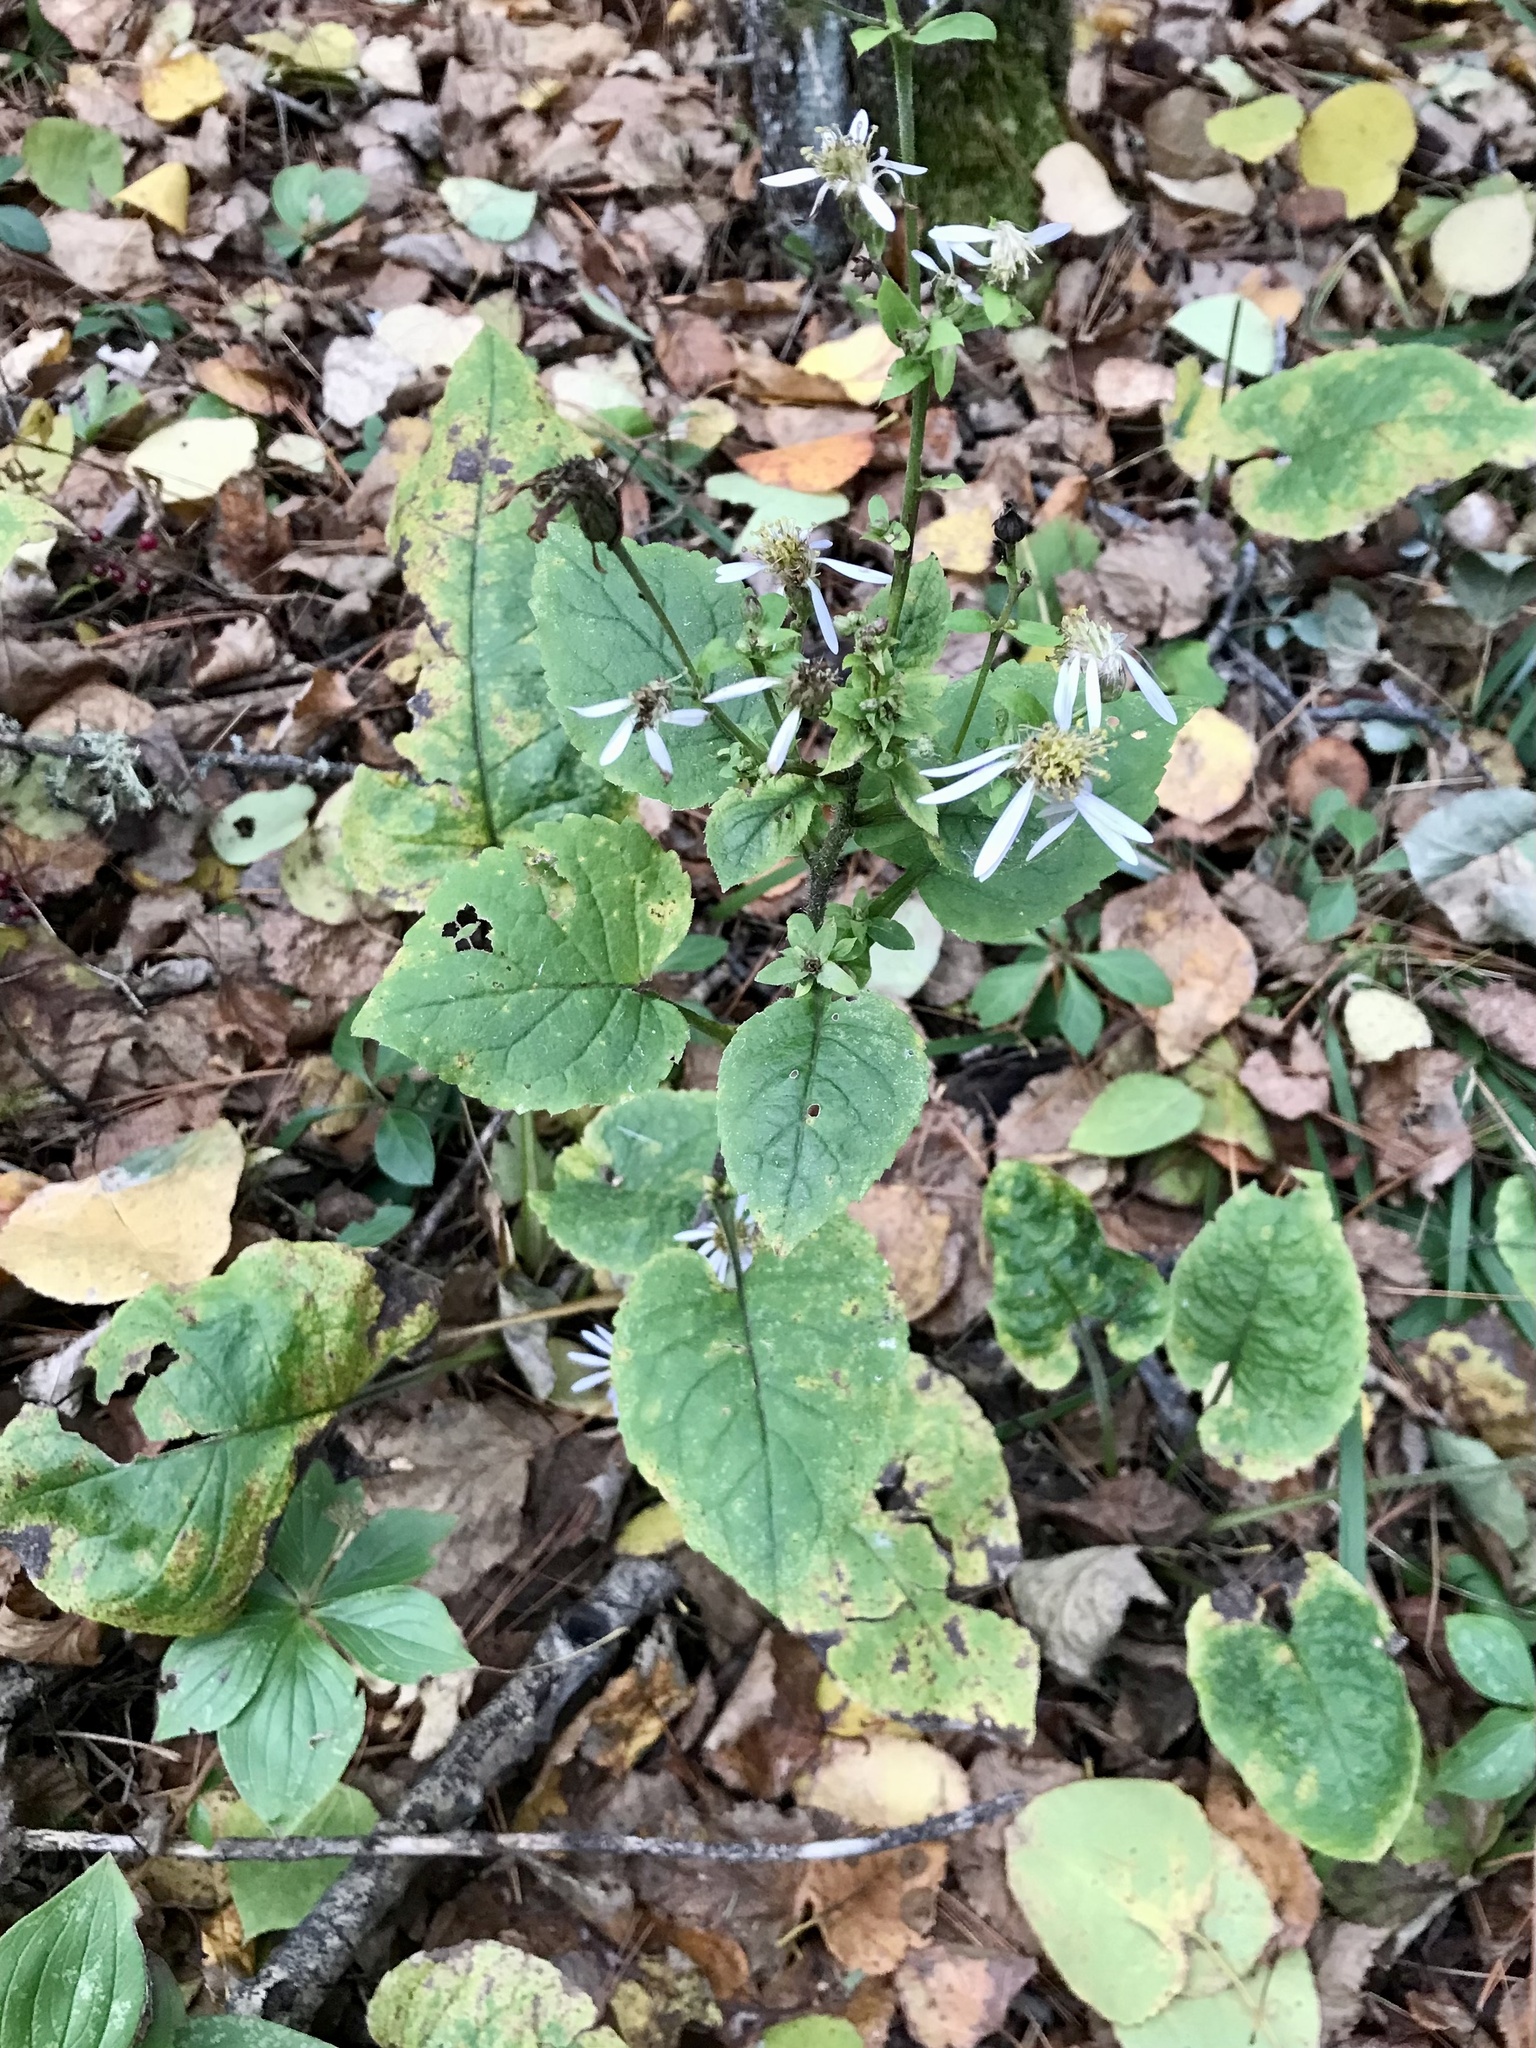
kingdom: Plantae
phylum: Tracheophyta
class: Magnoliopsida
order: Asterales
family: Asteraceae
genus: Eurybia
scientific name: Eurybia macrophylla
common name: Big-leaved aster
